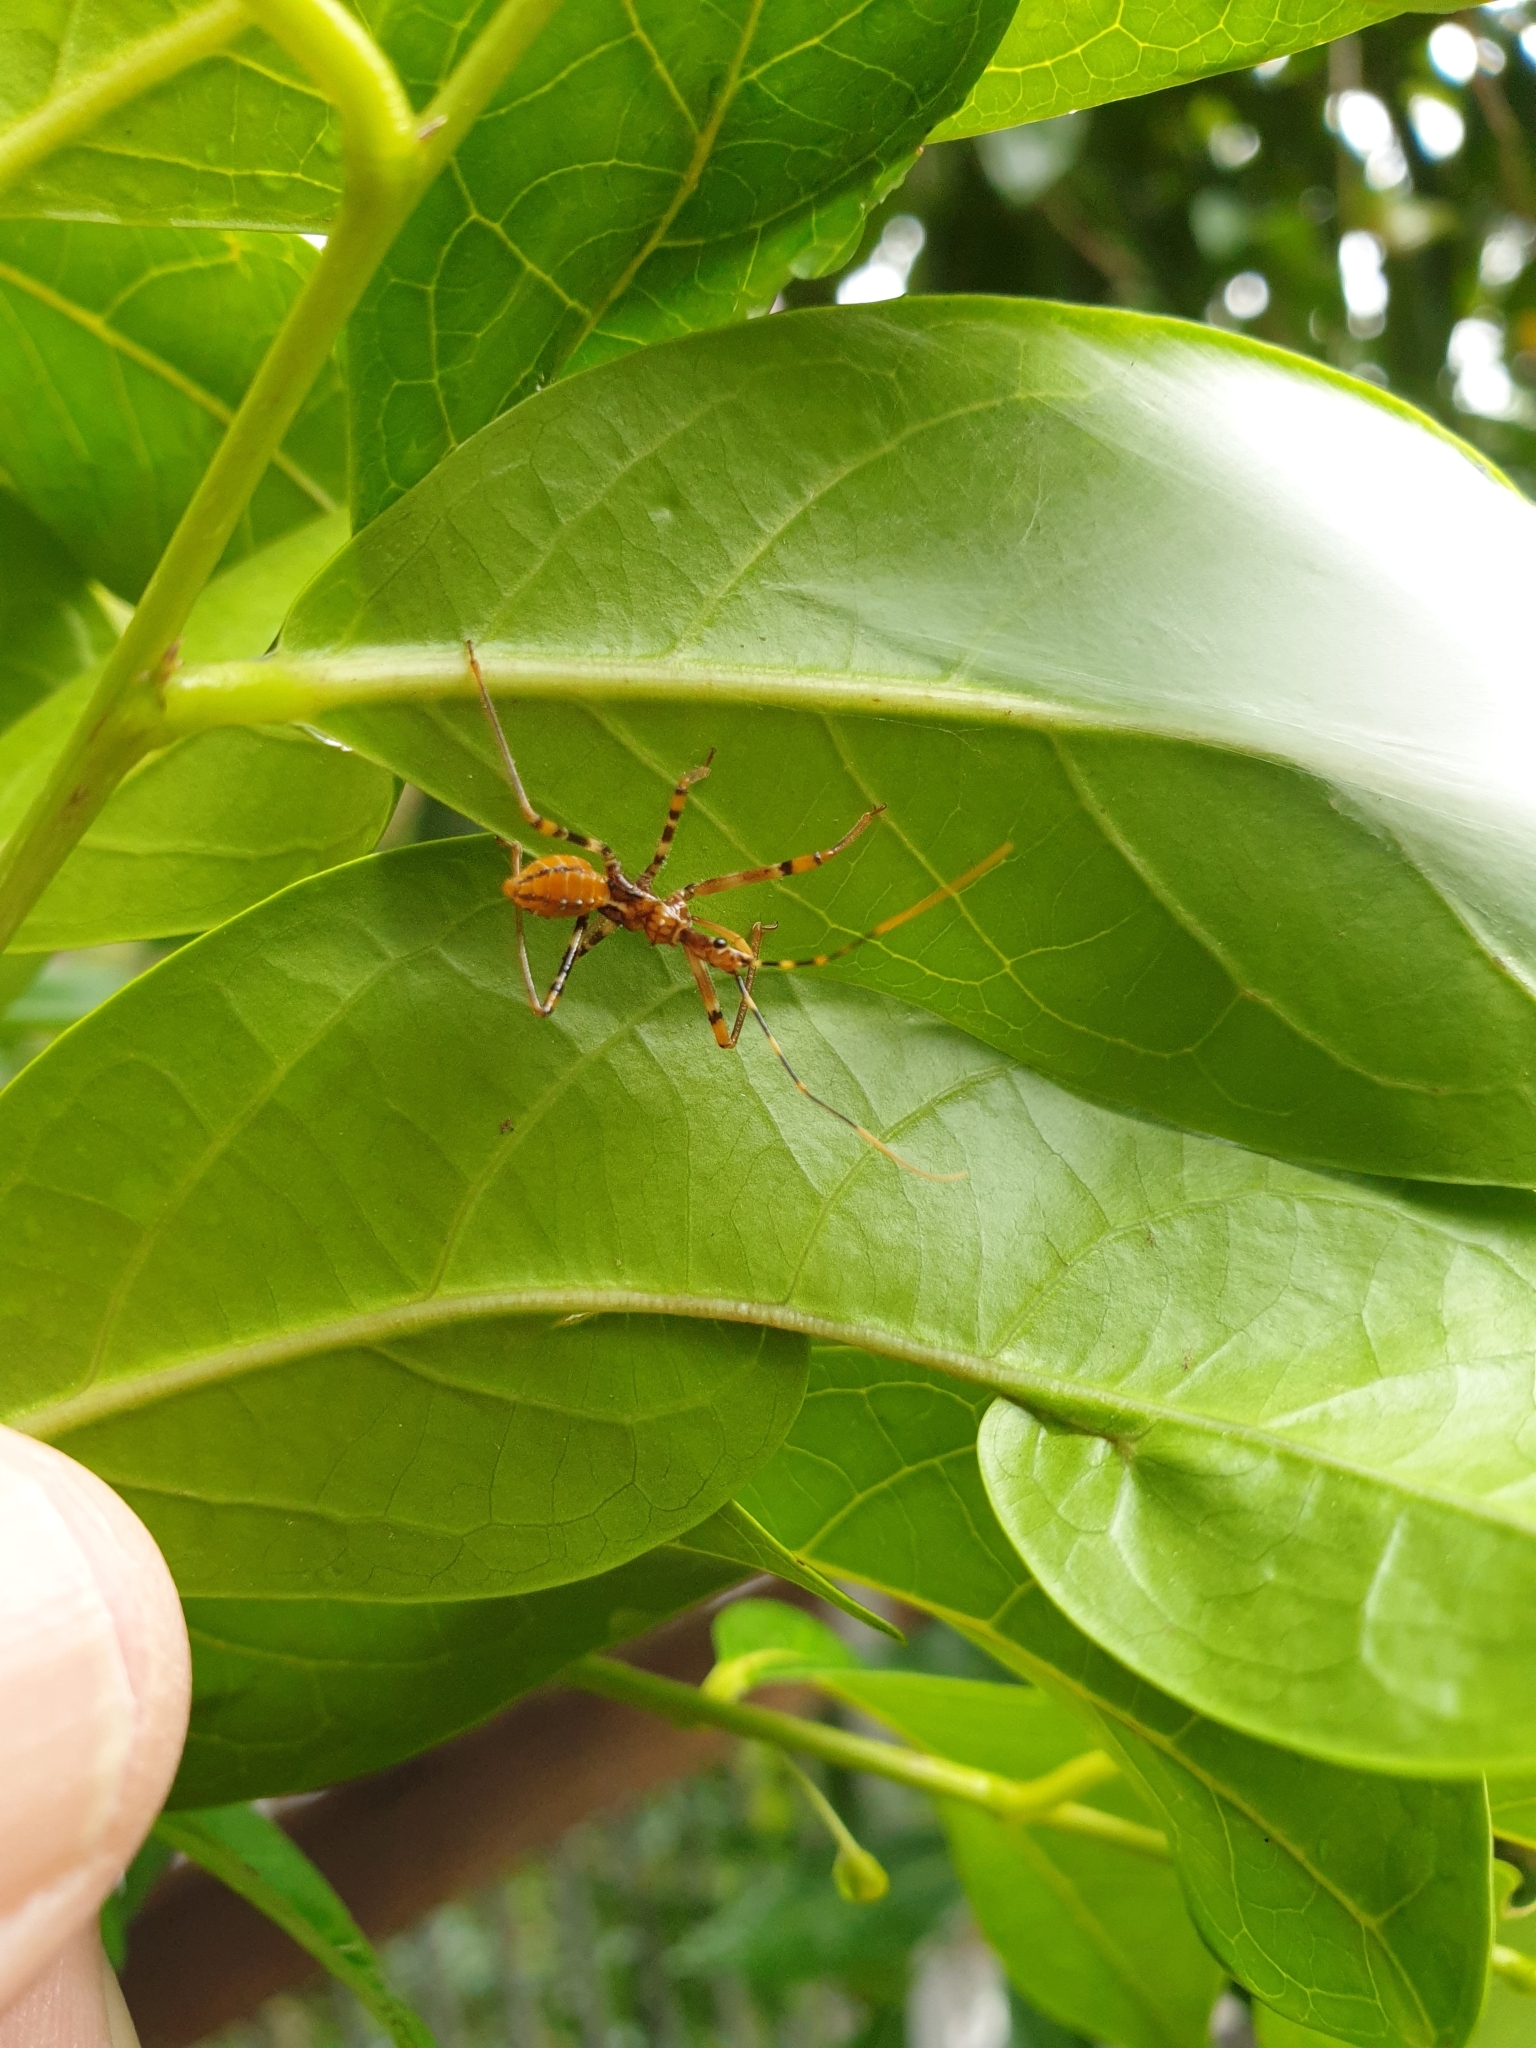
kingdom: Animalia
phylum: Arthropoda
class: Insecta
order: Hemiptera
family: Reduviidae
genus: Pristhesancus
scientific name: Pristhesancus plagipennis
